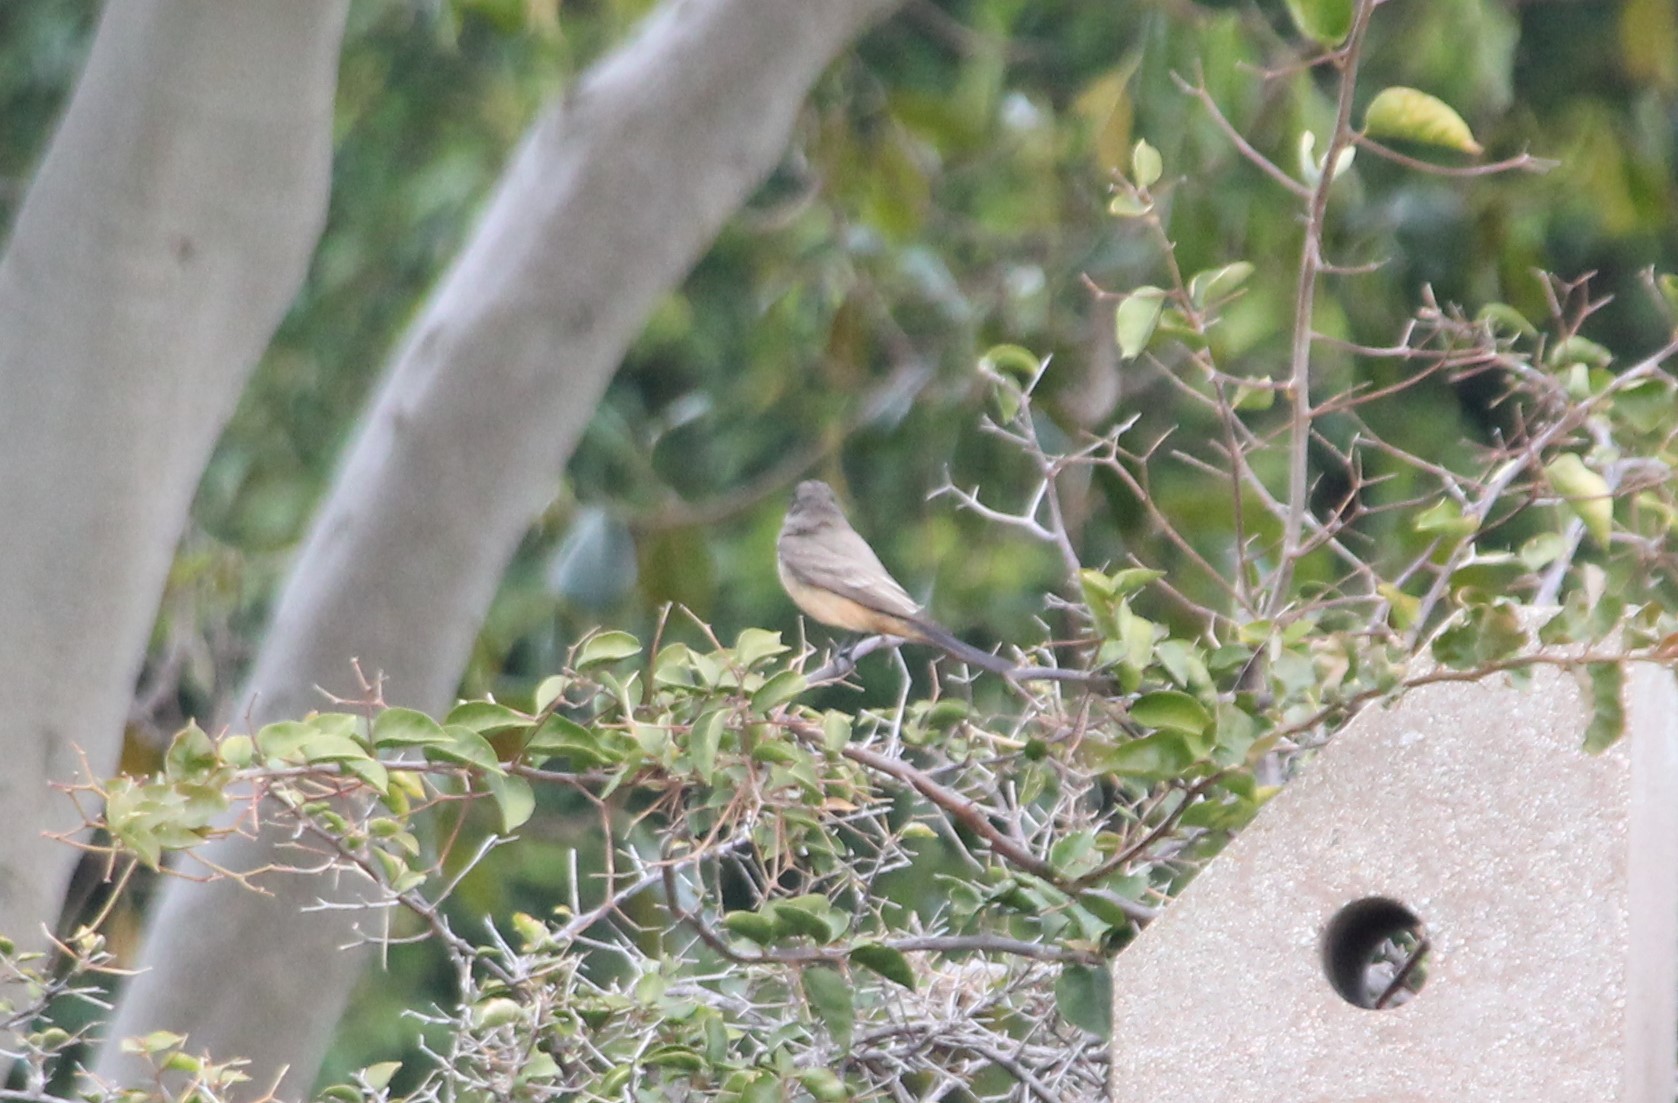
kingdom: Animalia
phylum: Chordata
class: Aves
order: Passeriformes
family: Tyrannidae
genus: Sayornis
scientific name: Sayornis saya
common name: Say's phoebe
